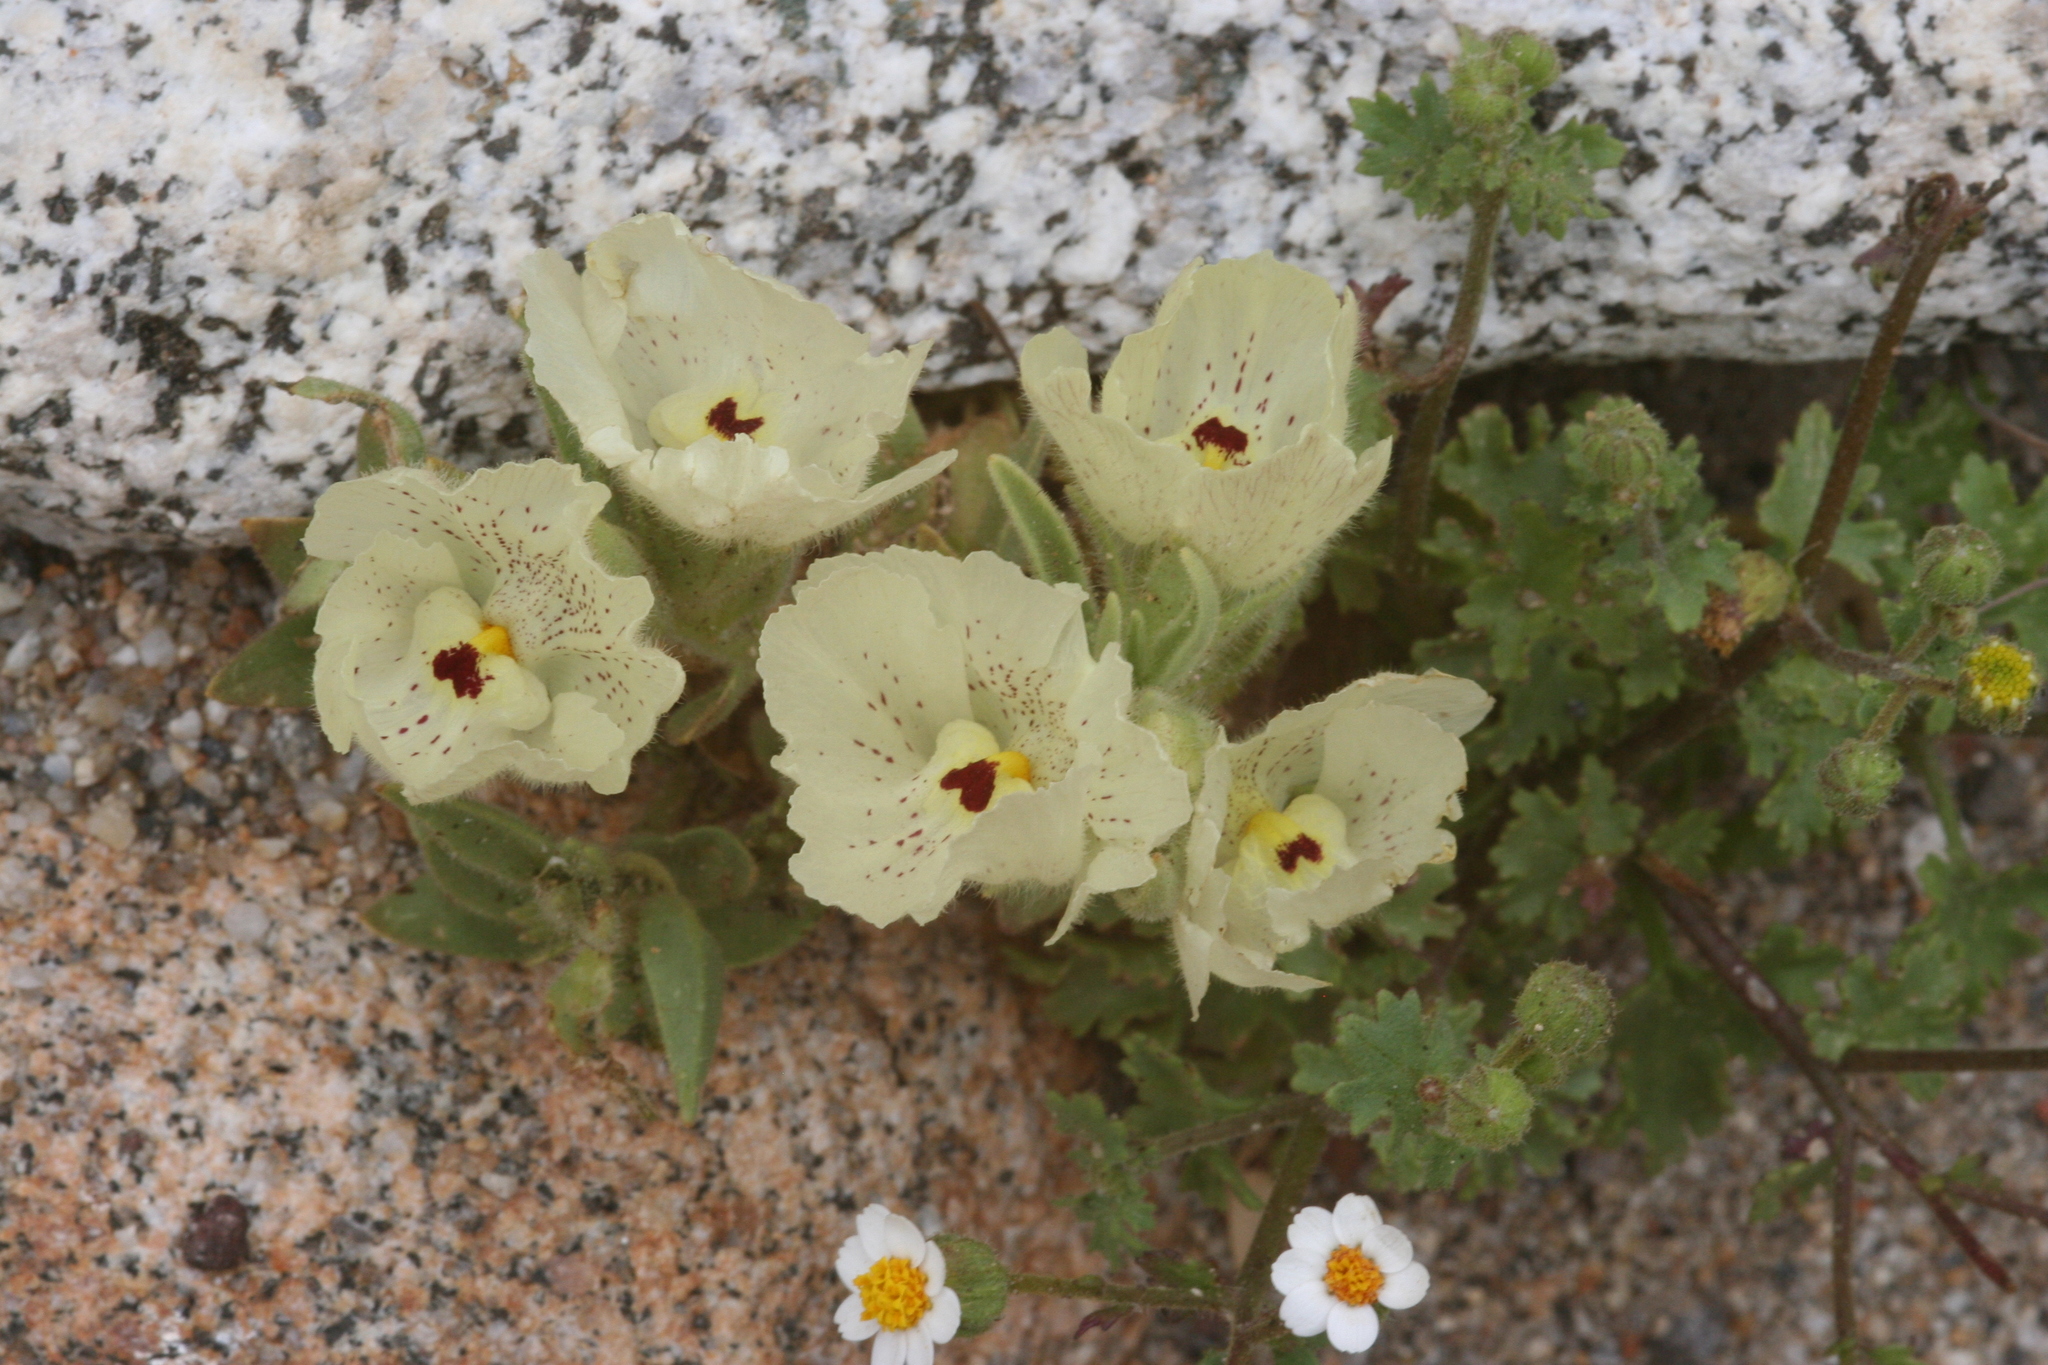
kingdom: Plantae
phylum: Tracheophyta
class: Magnoliopsida
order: Lamiales
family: Plantaginaceae
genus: Mohavea
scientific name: Mohavea confertiflora
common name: Ghost flower
